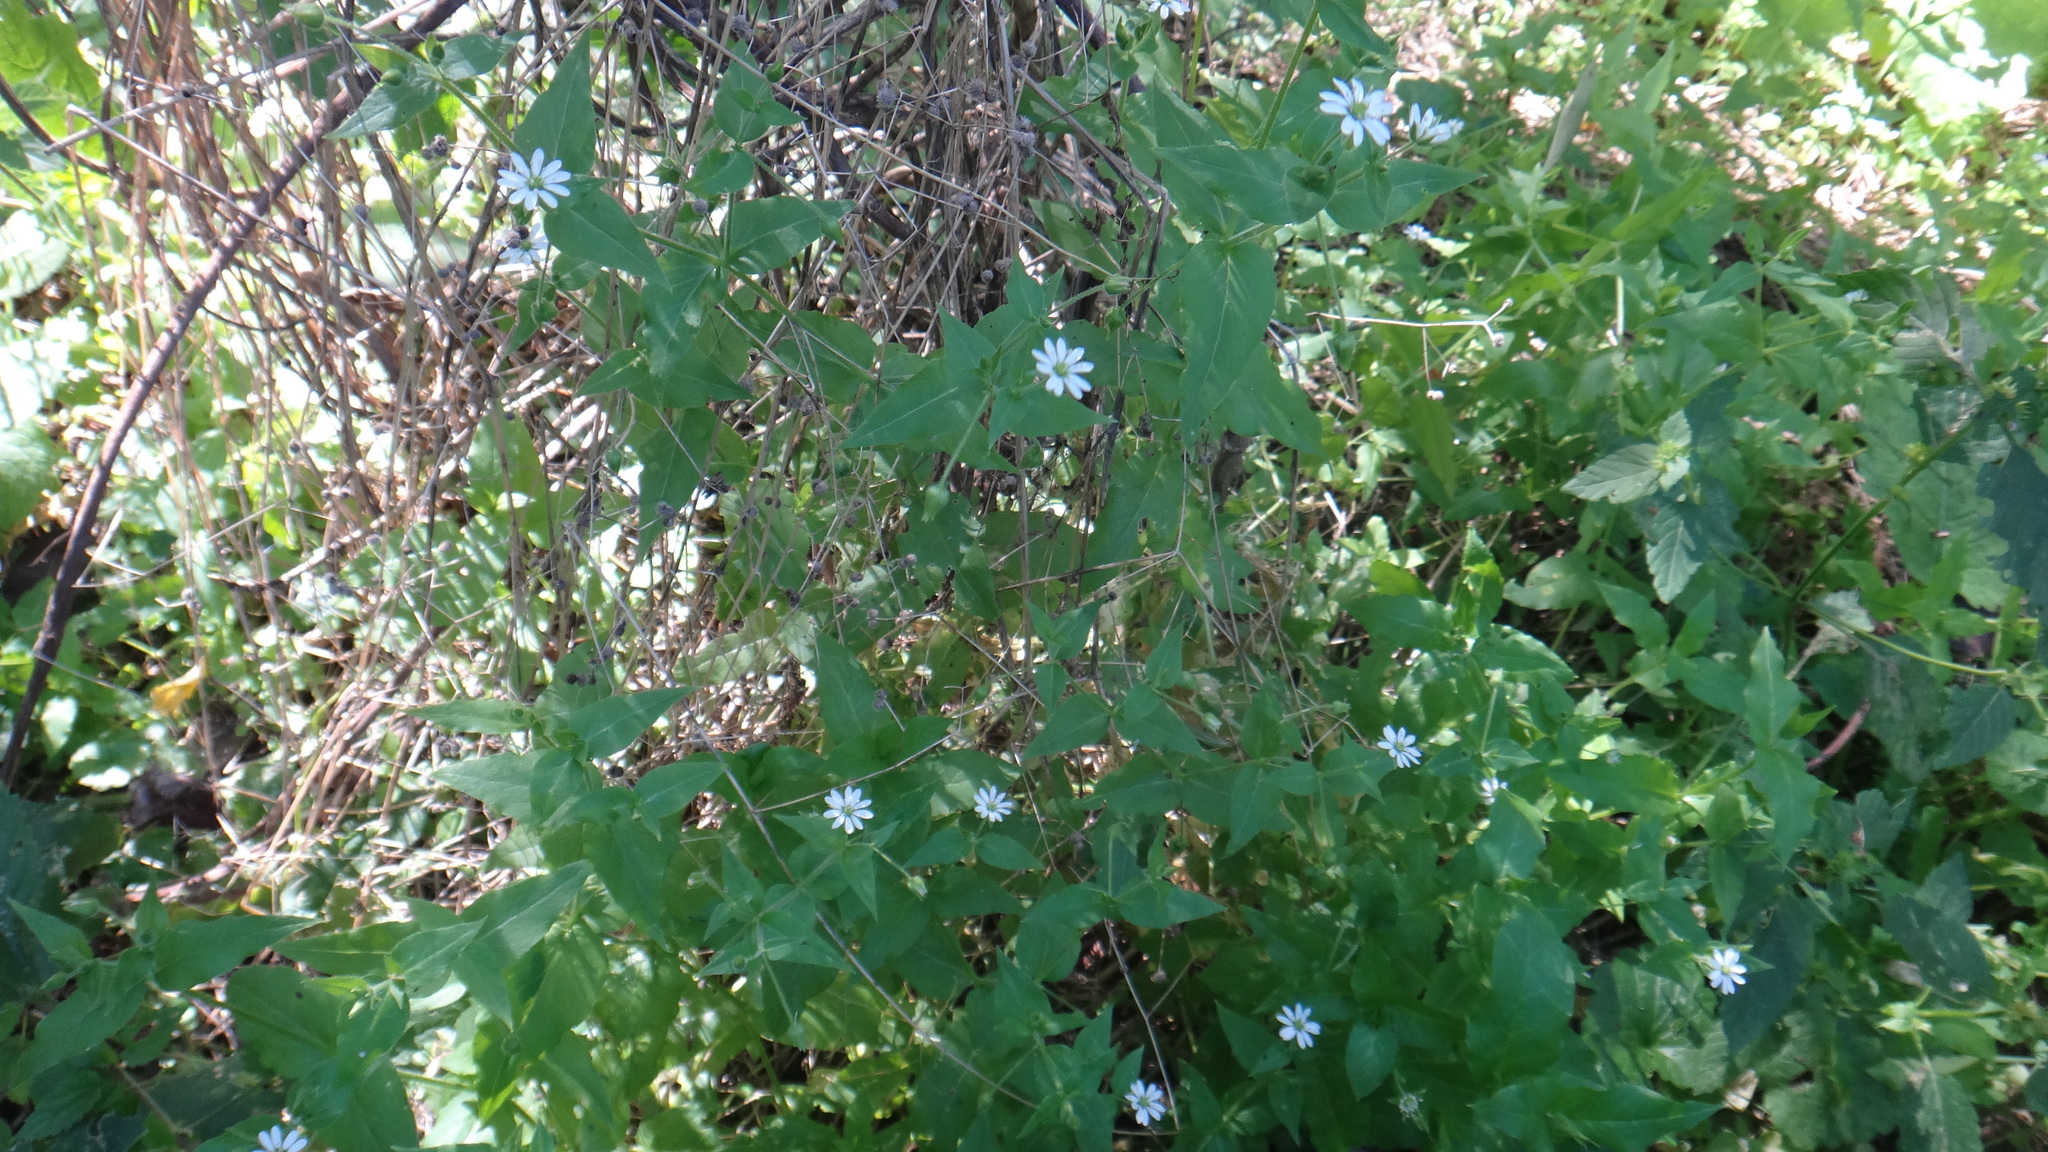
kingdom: Plantae
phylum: Tracheophyta
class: Magnoliopsida
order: Caryophyllales
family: Caryophyllaceae
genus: Stellaria
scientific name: Stellaria aquatica
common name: Water chickweed
